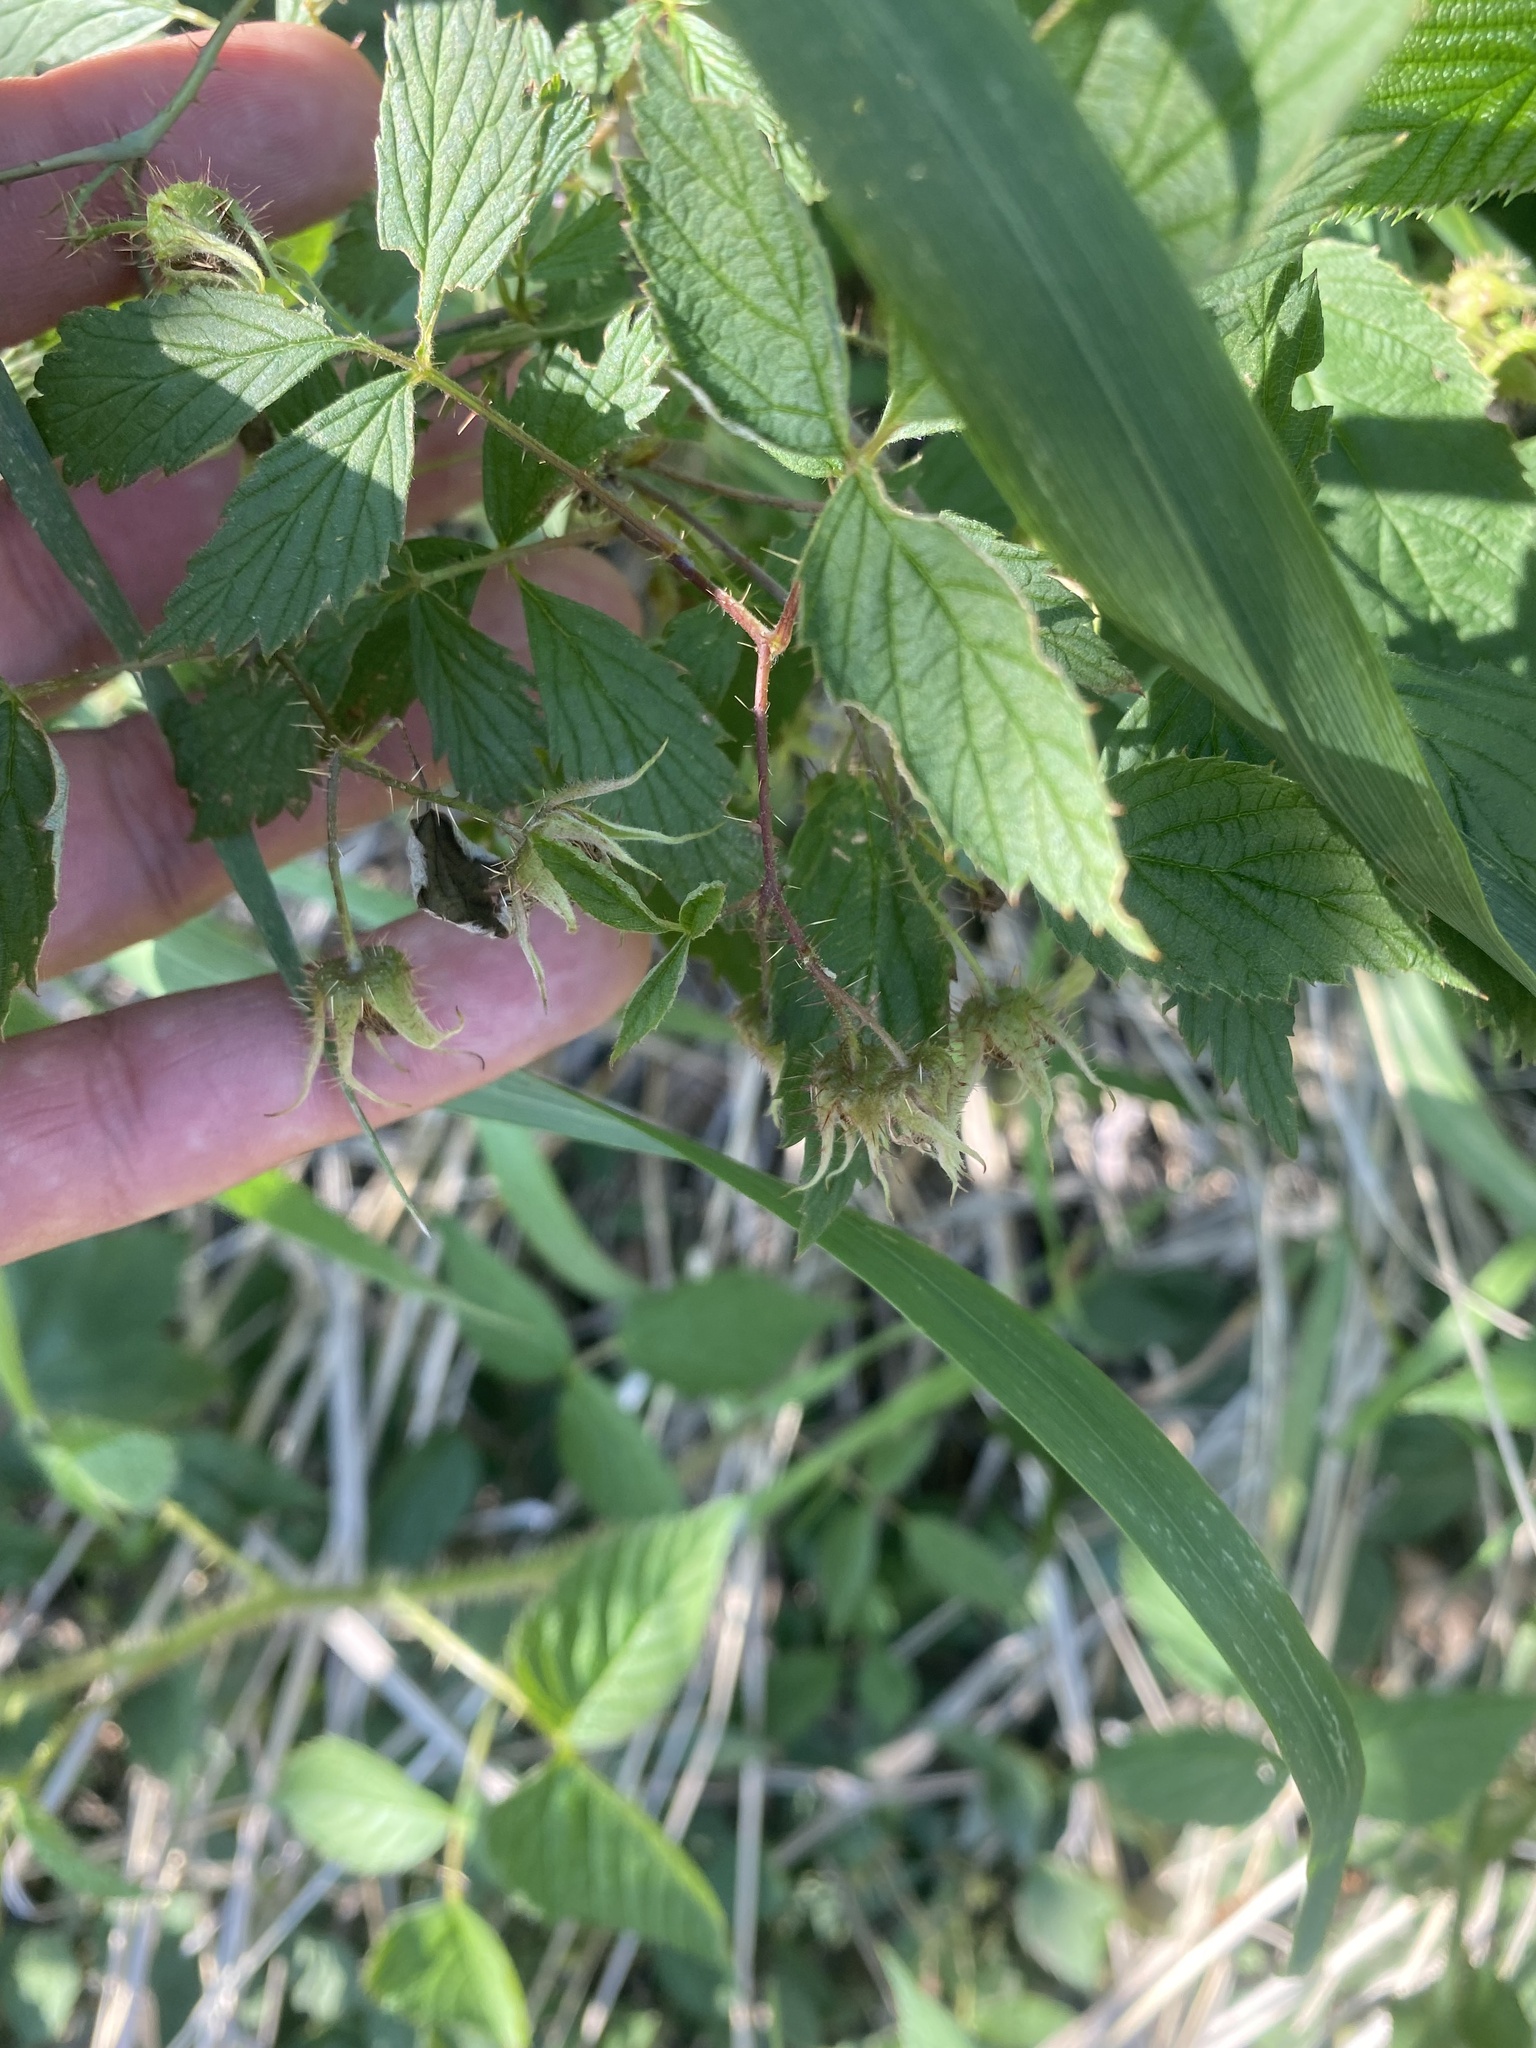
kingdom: Plantae
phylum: Tracheophyta
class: Magnoliopsida
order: Rosales
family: Rosaceae
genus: Rubus
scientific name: Rubus sachalinensis
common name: Red raspberry
